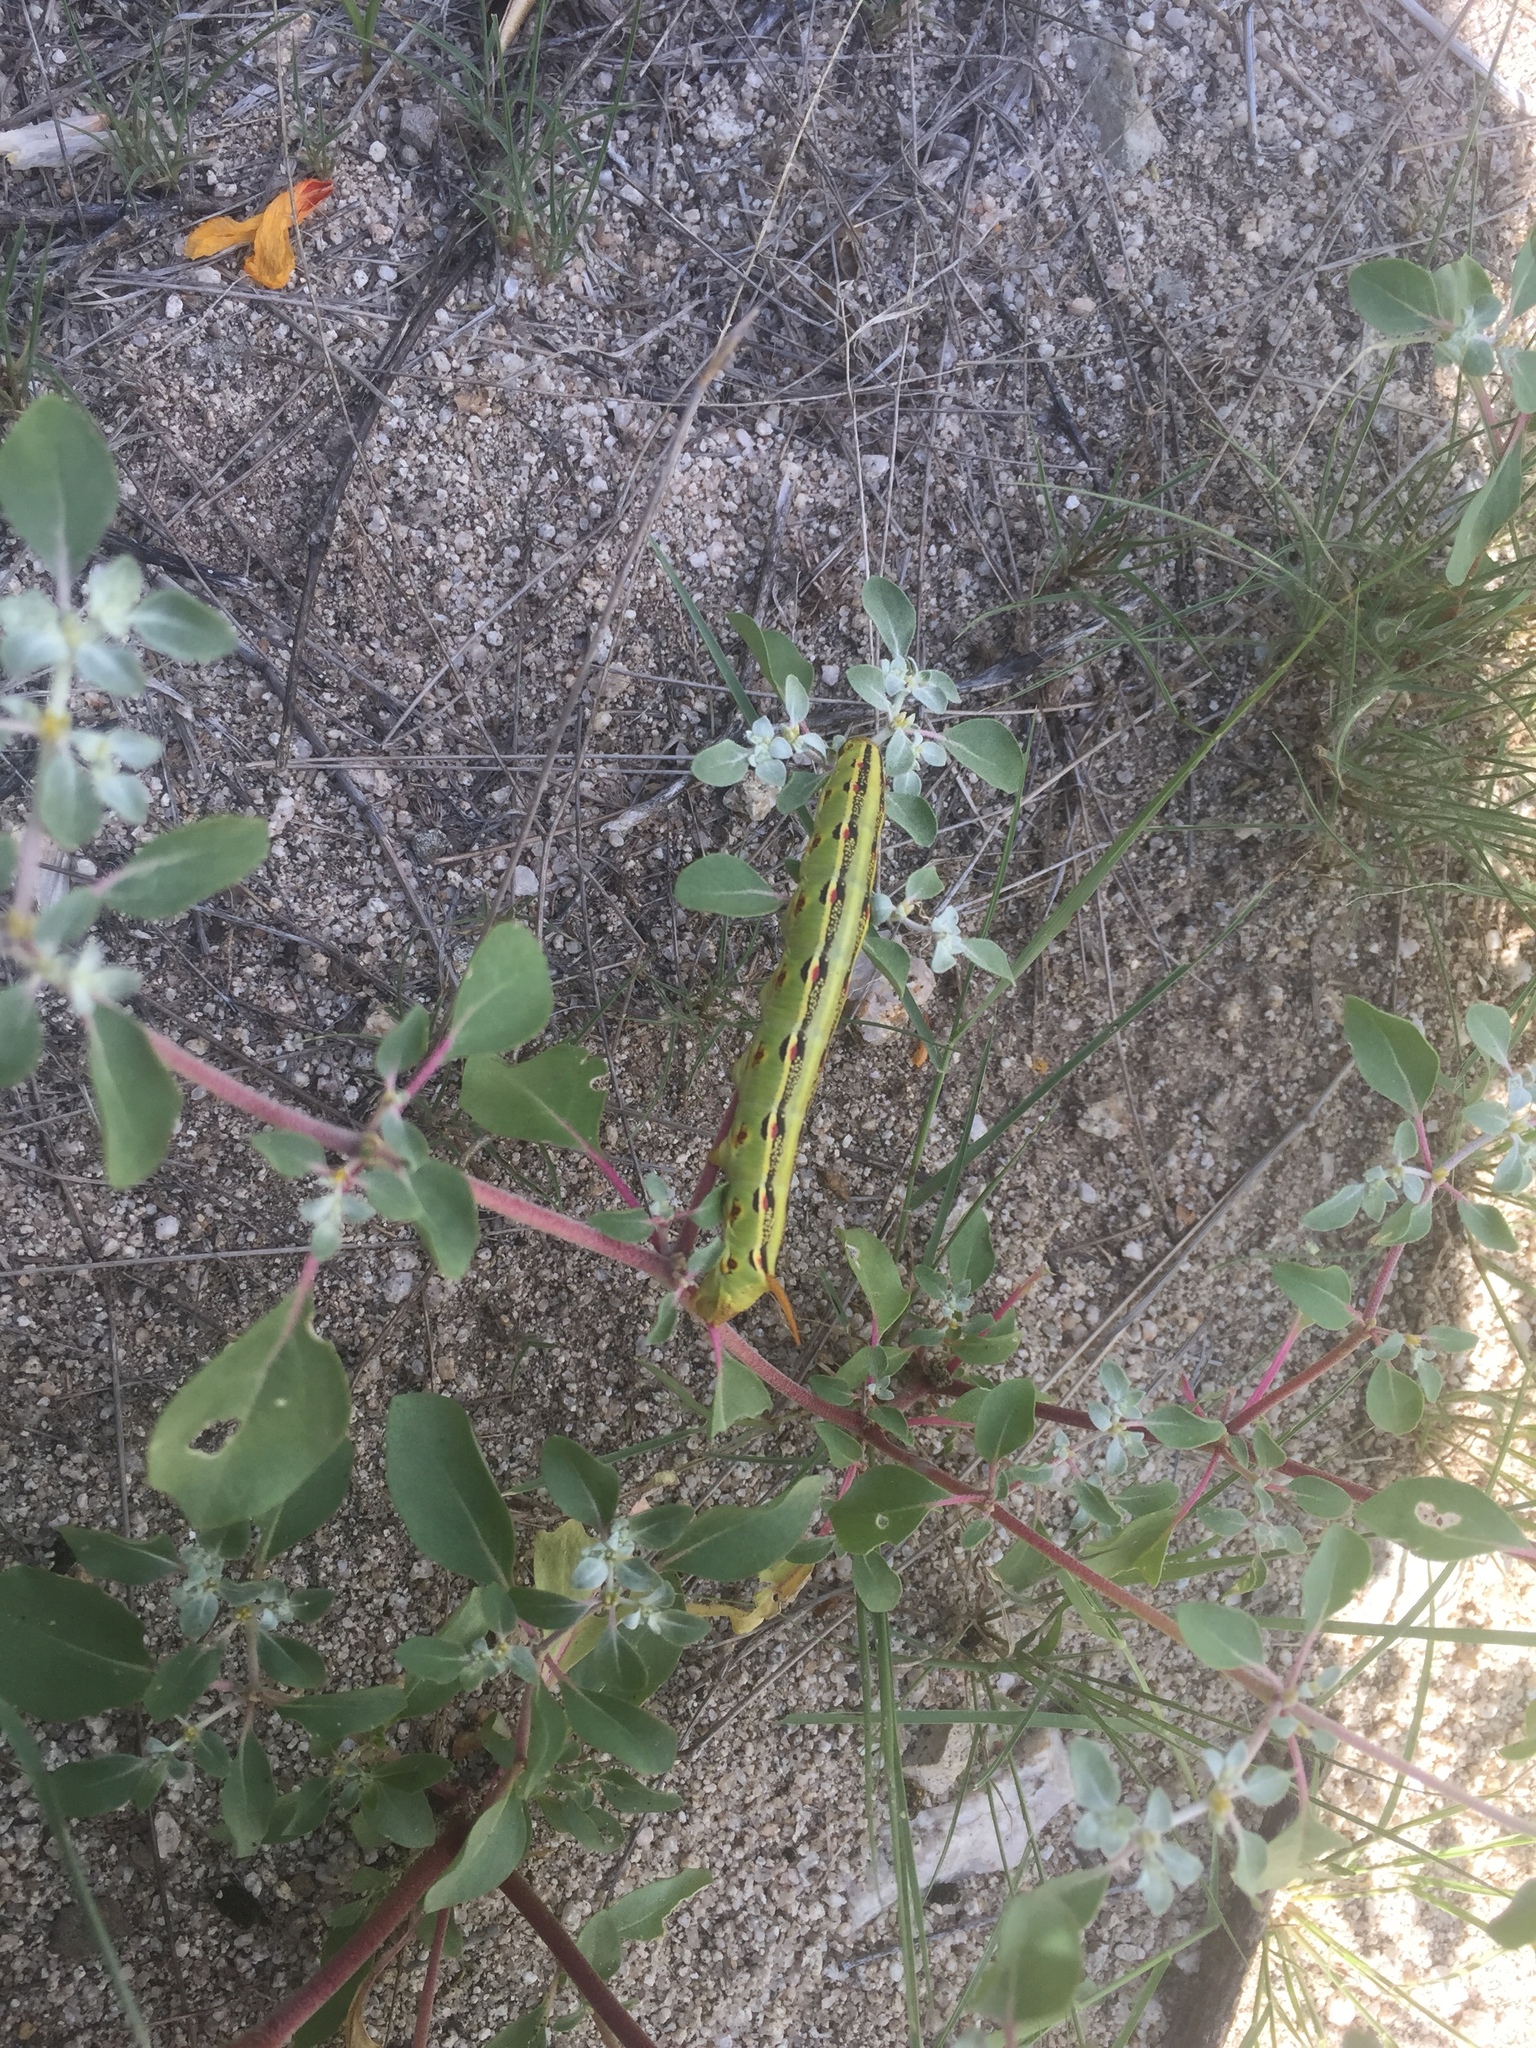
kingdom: Animalia
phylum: Arthropoda
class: Insecta
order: Lepidoptera
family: Sphingidae
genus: Hyles
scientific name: Hyles lineata
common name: White-lined sphinx
